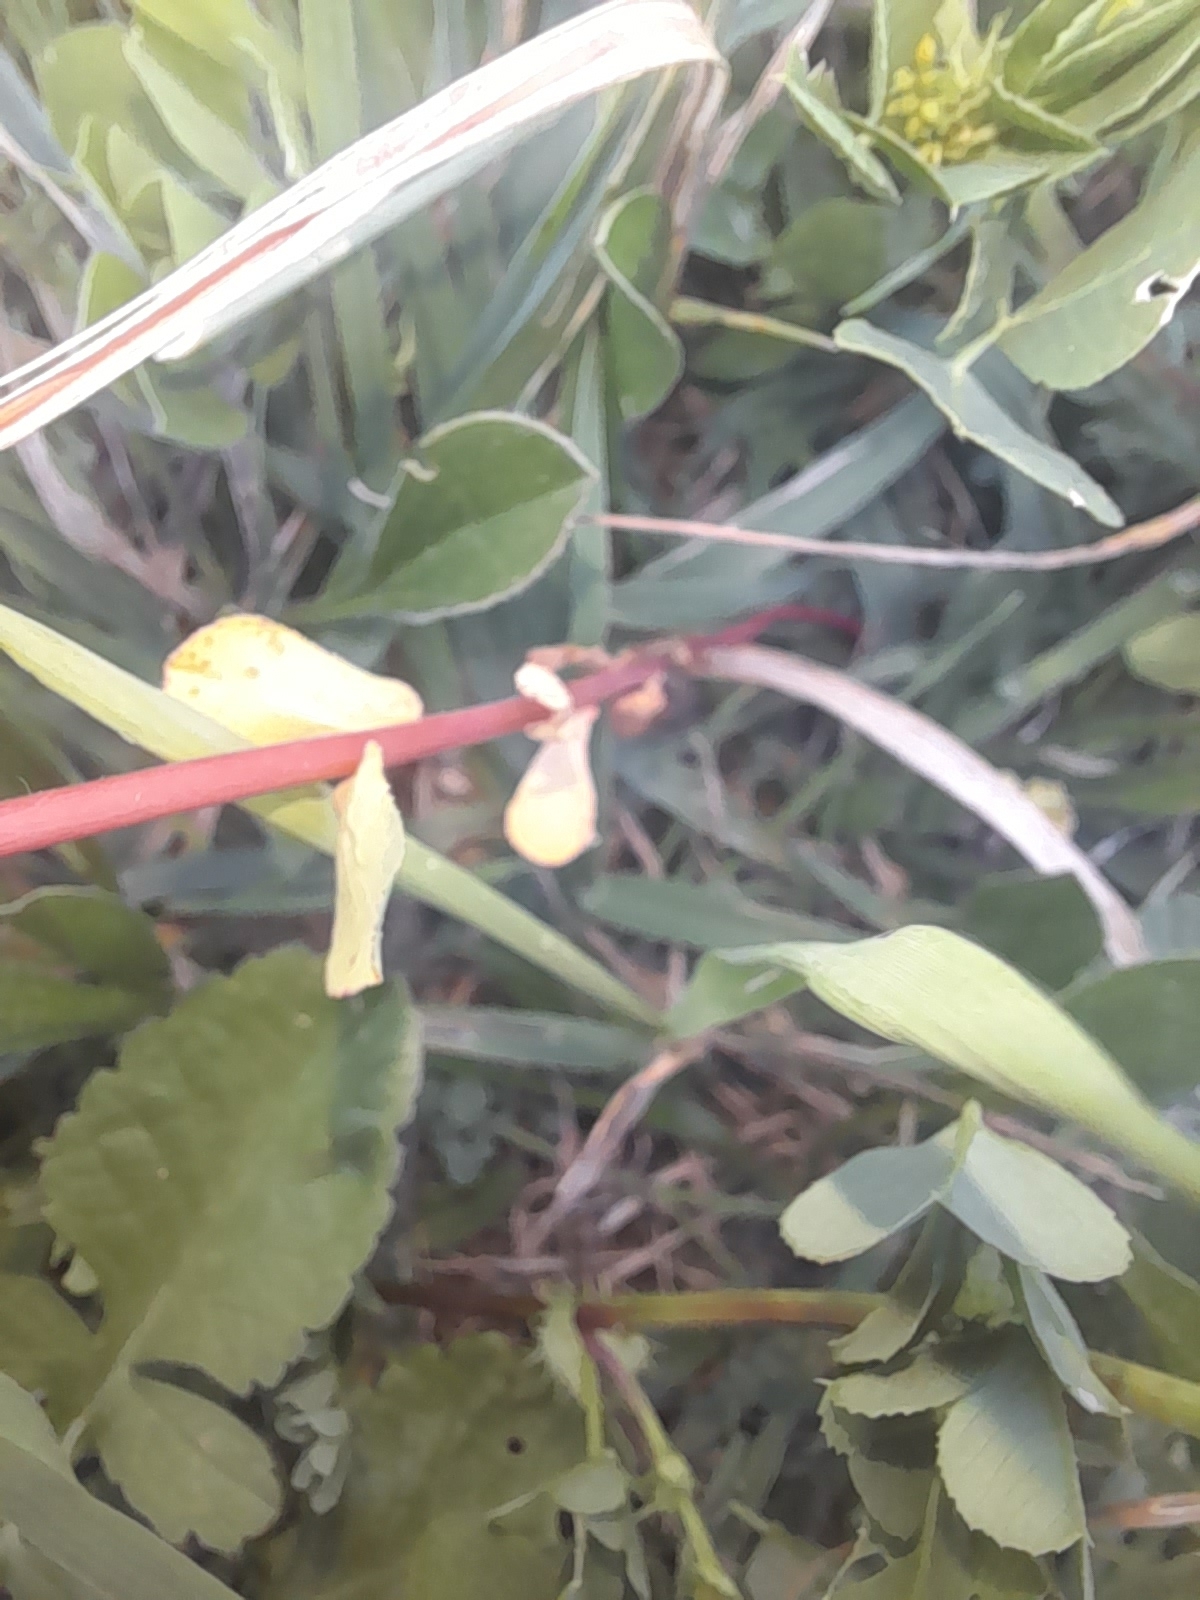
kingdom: Plantae
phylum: Tracheophyta
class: Magnoliopsida
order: Malpighiales
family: Euphorbiaceae
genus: Euphorbia
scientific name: Euphorbia helioscopia
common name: Sun spurge
